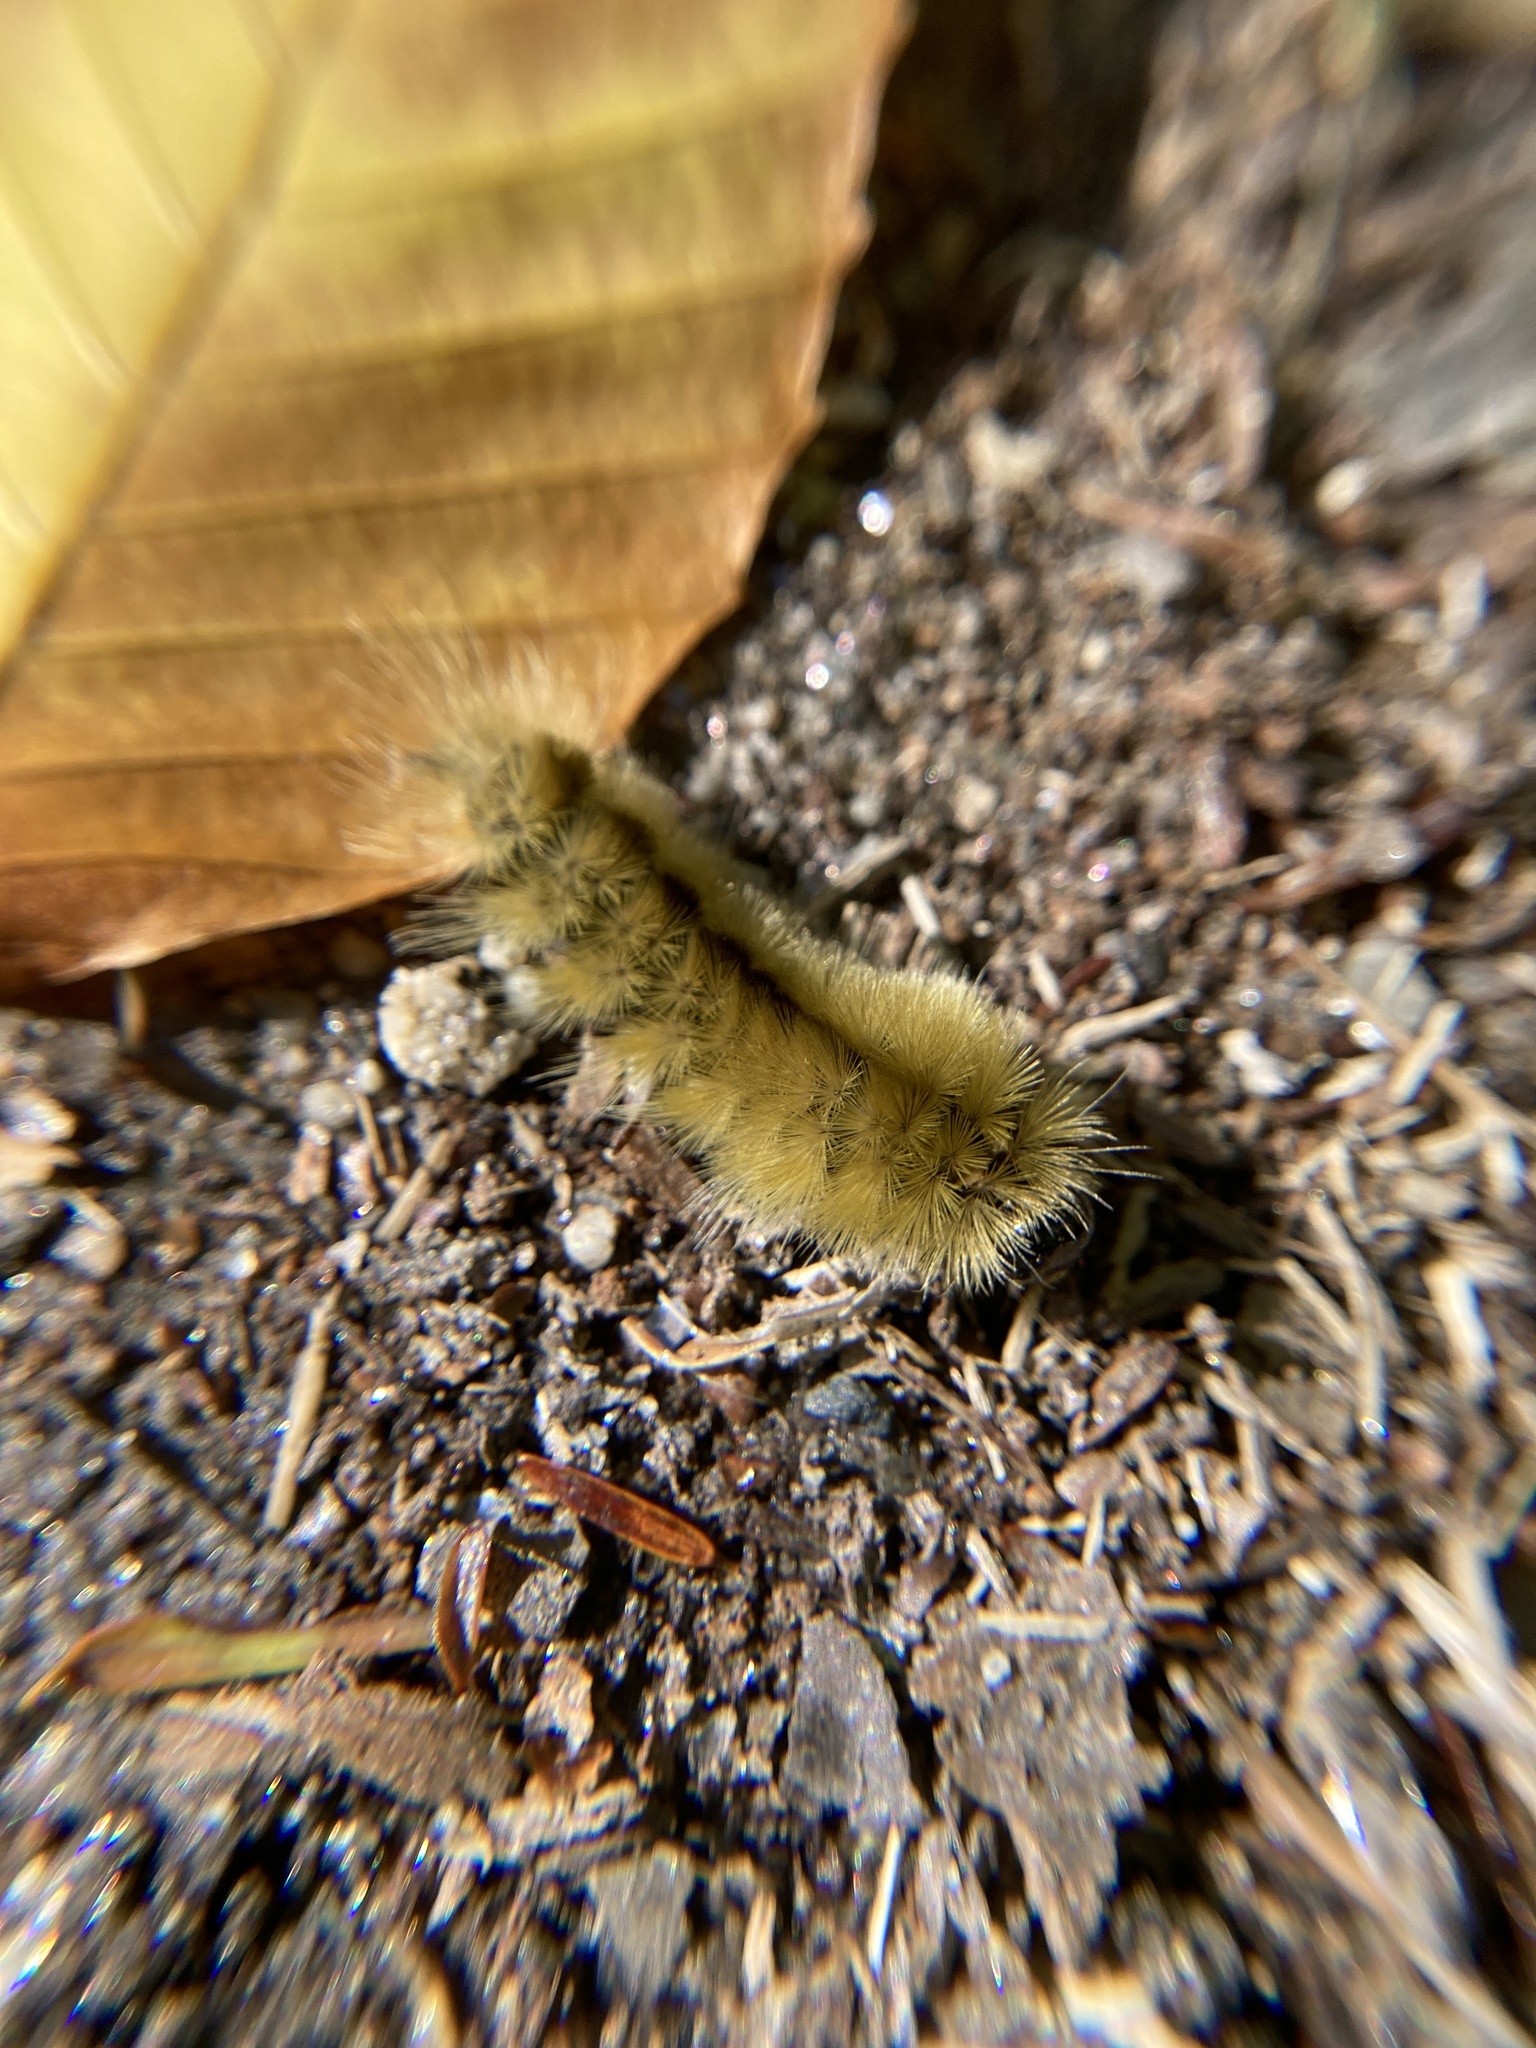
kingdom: Animalia
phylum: Arthropoda
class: Insecta
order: Lepidoptera
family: Erebidae
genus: Halysidota
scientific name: Halysidota tessellaris
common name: Banded tussock moth
